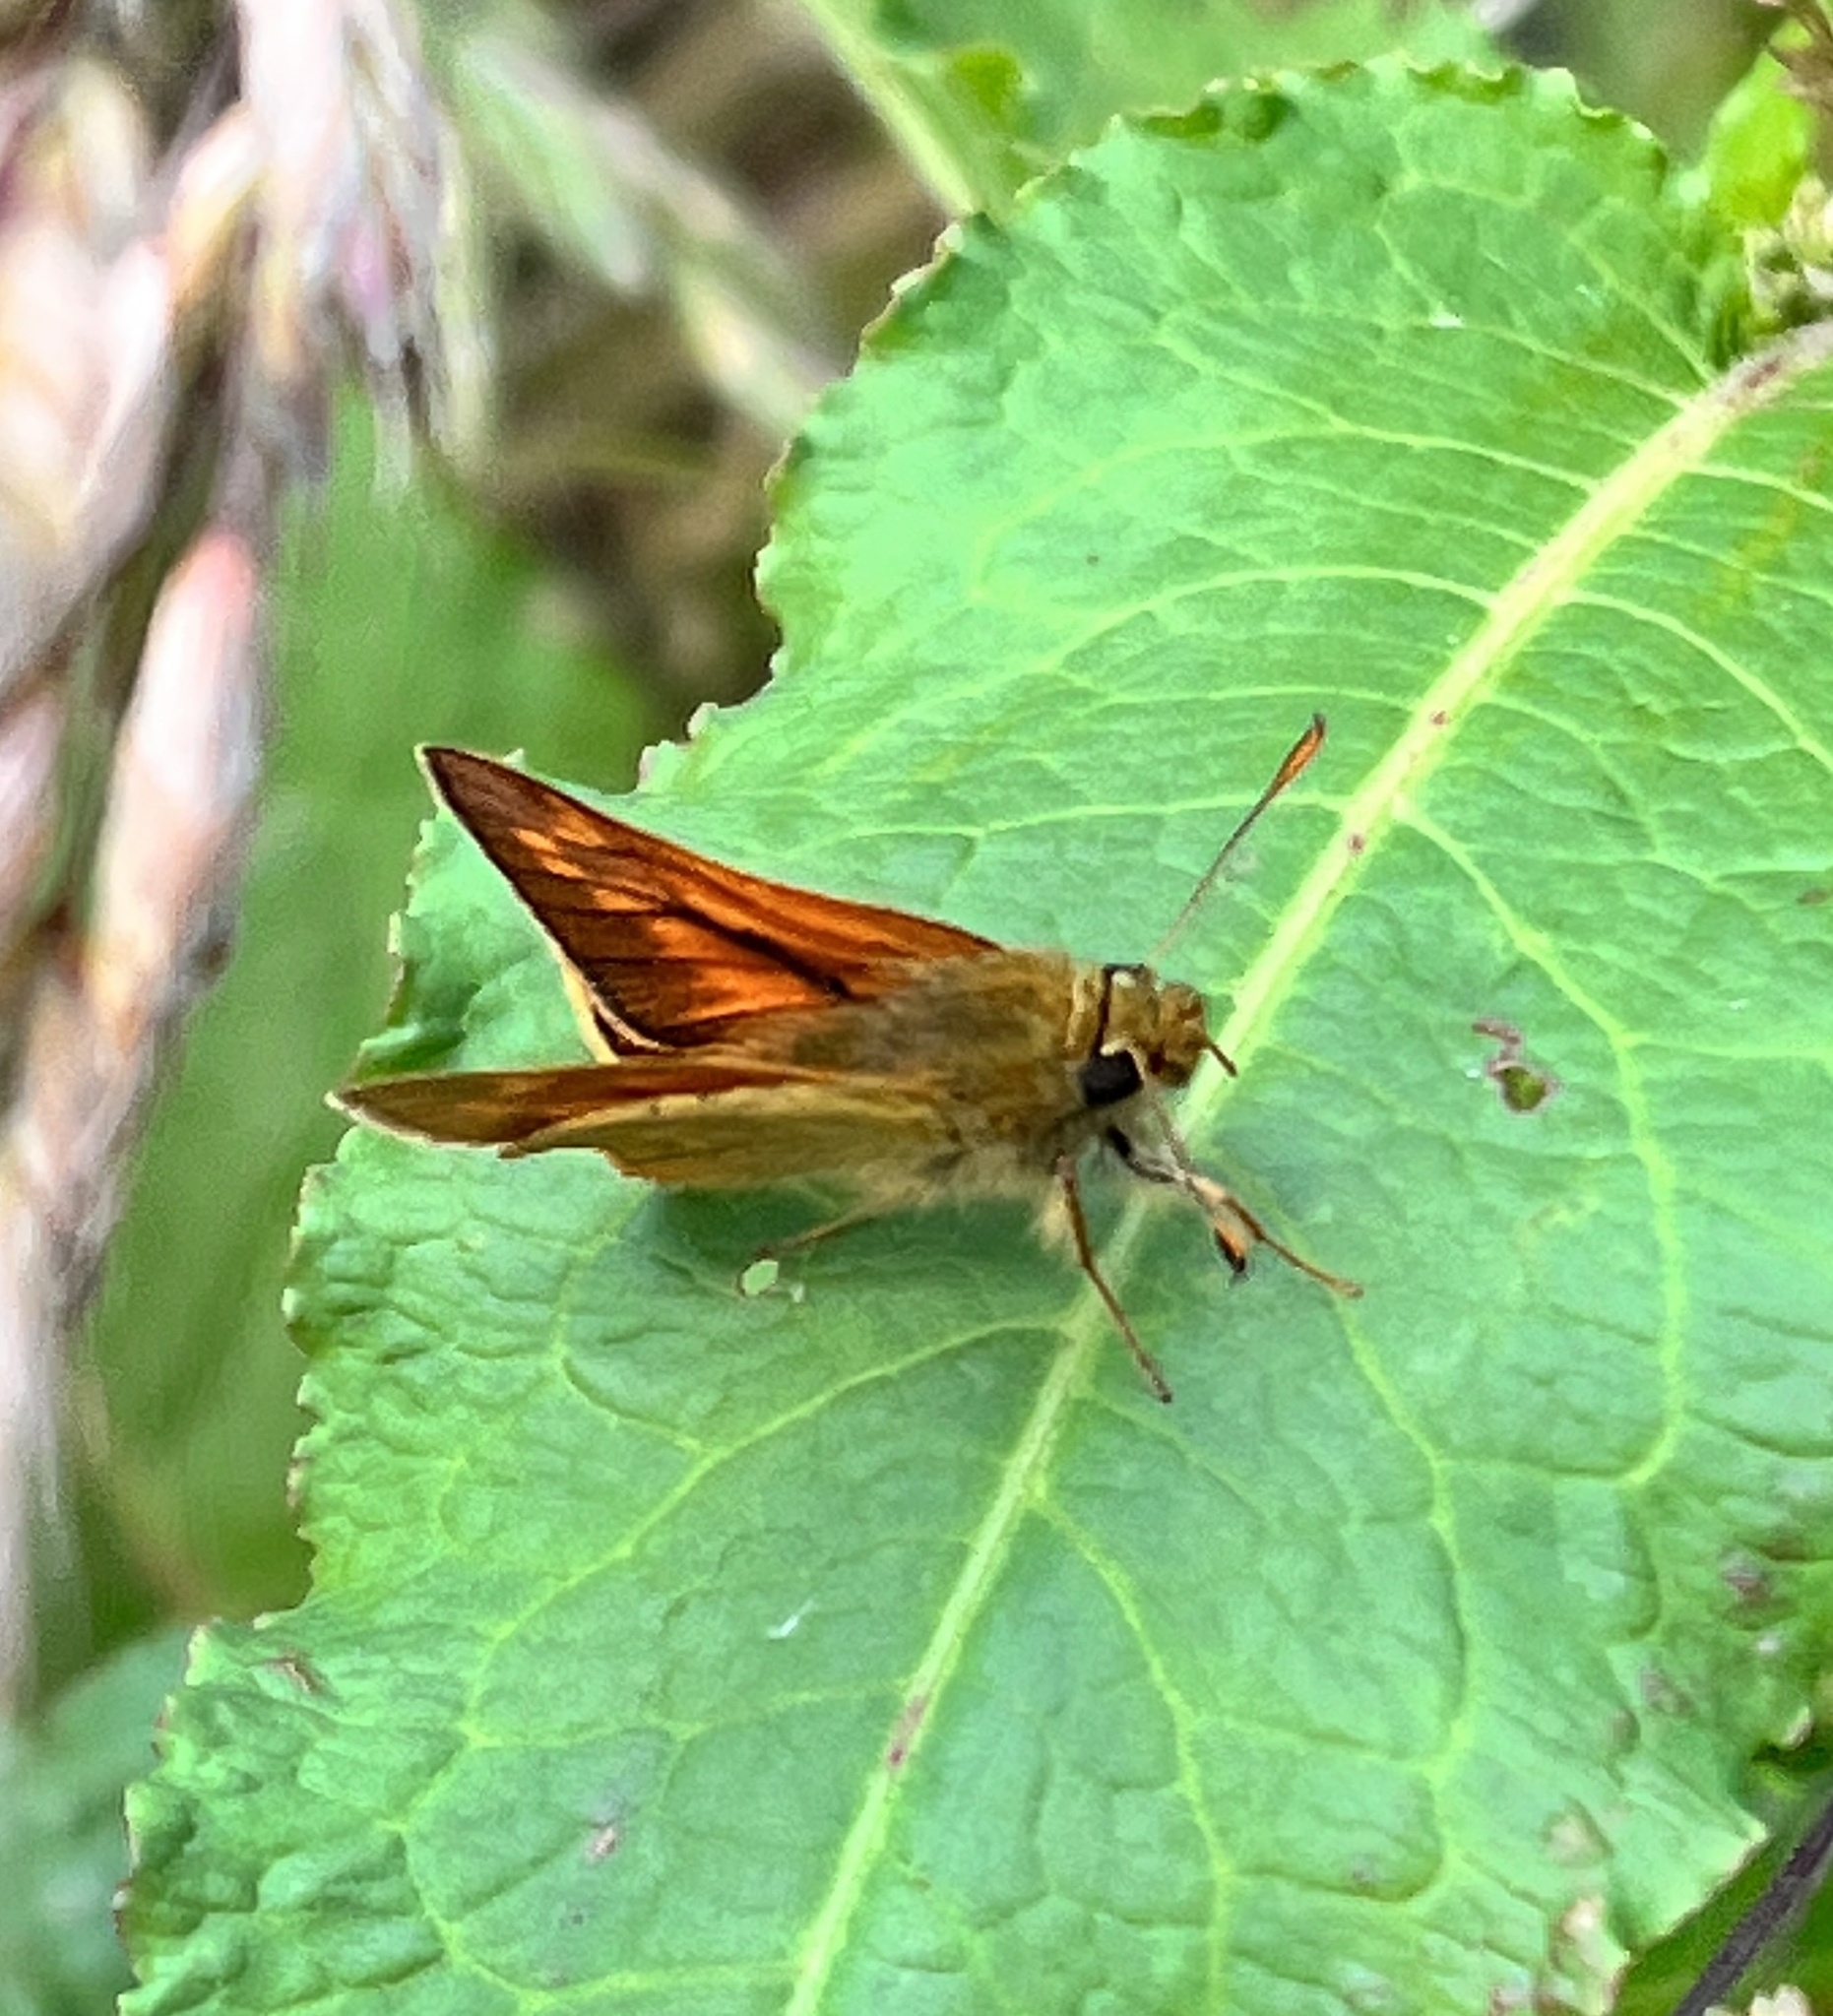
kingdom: Animalia
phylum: Arthropoda
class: Insecta
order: Lepidoptera
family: Hesperiidae
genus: Ochlodes
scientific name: Ochlodes venata
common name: Large skipper
